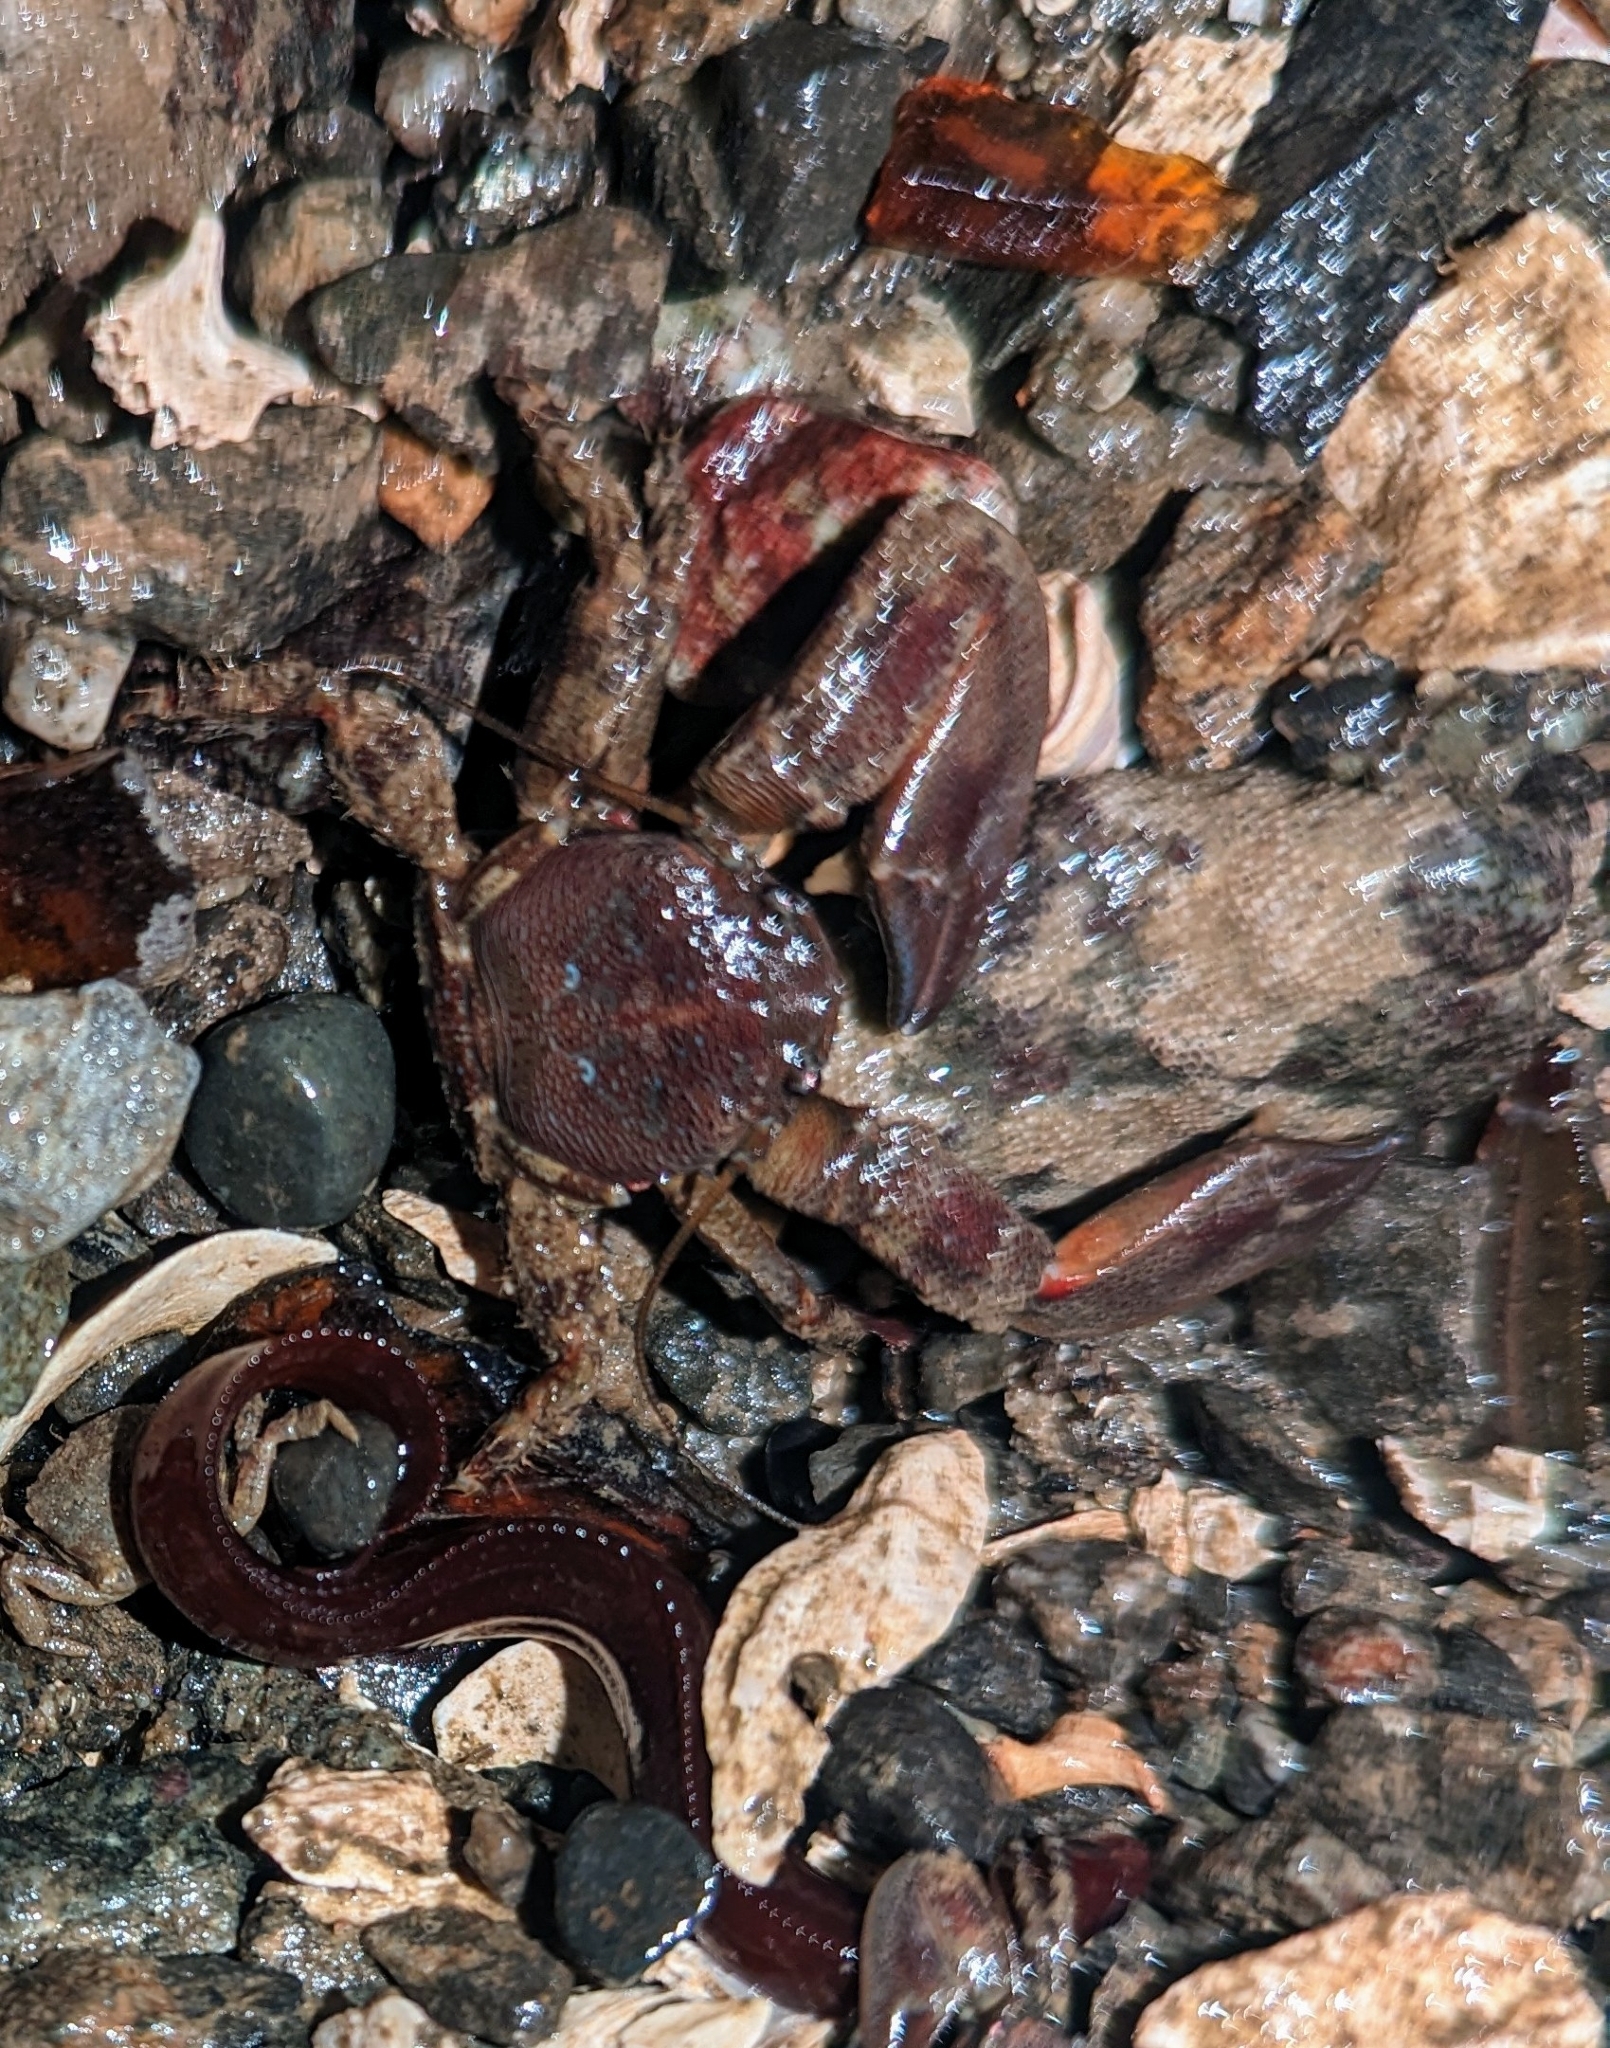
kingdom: Animalia
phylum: Arthropoda
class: Malacostraca
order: Decapoda
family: Porcellanidae
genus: Petrolisthes
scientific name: Petrolisthes eriomerus
